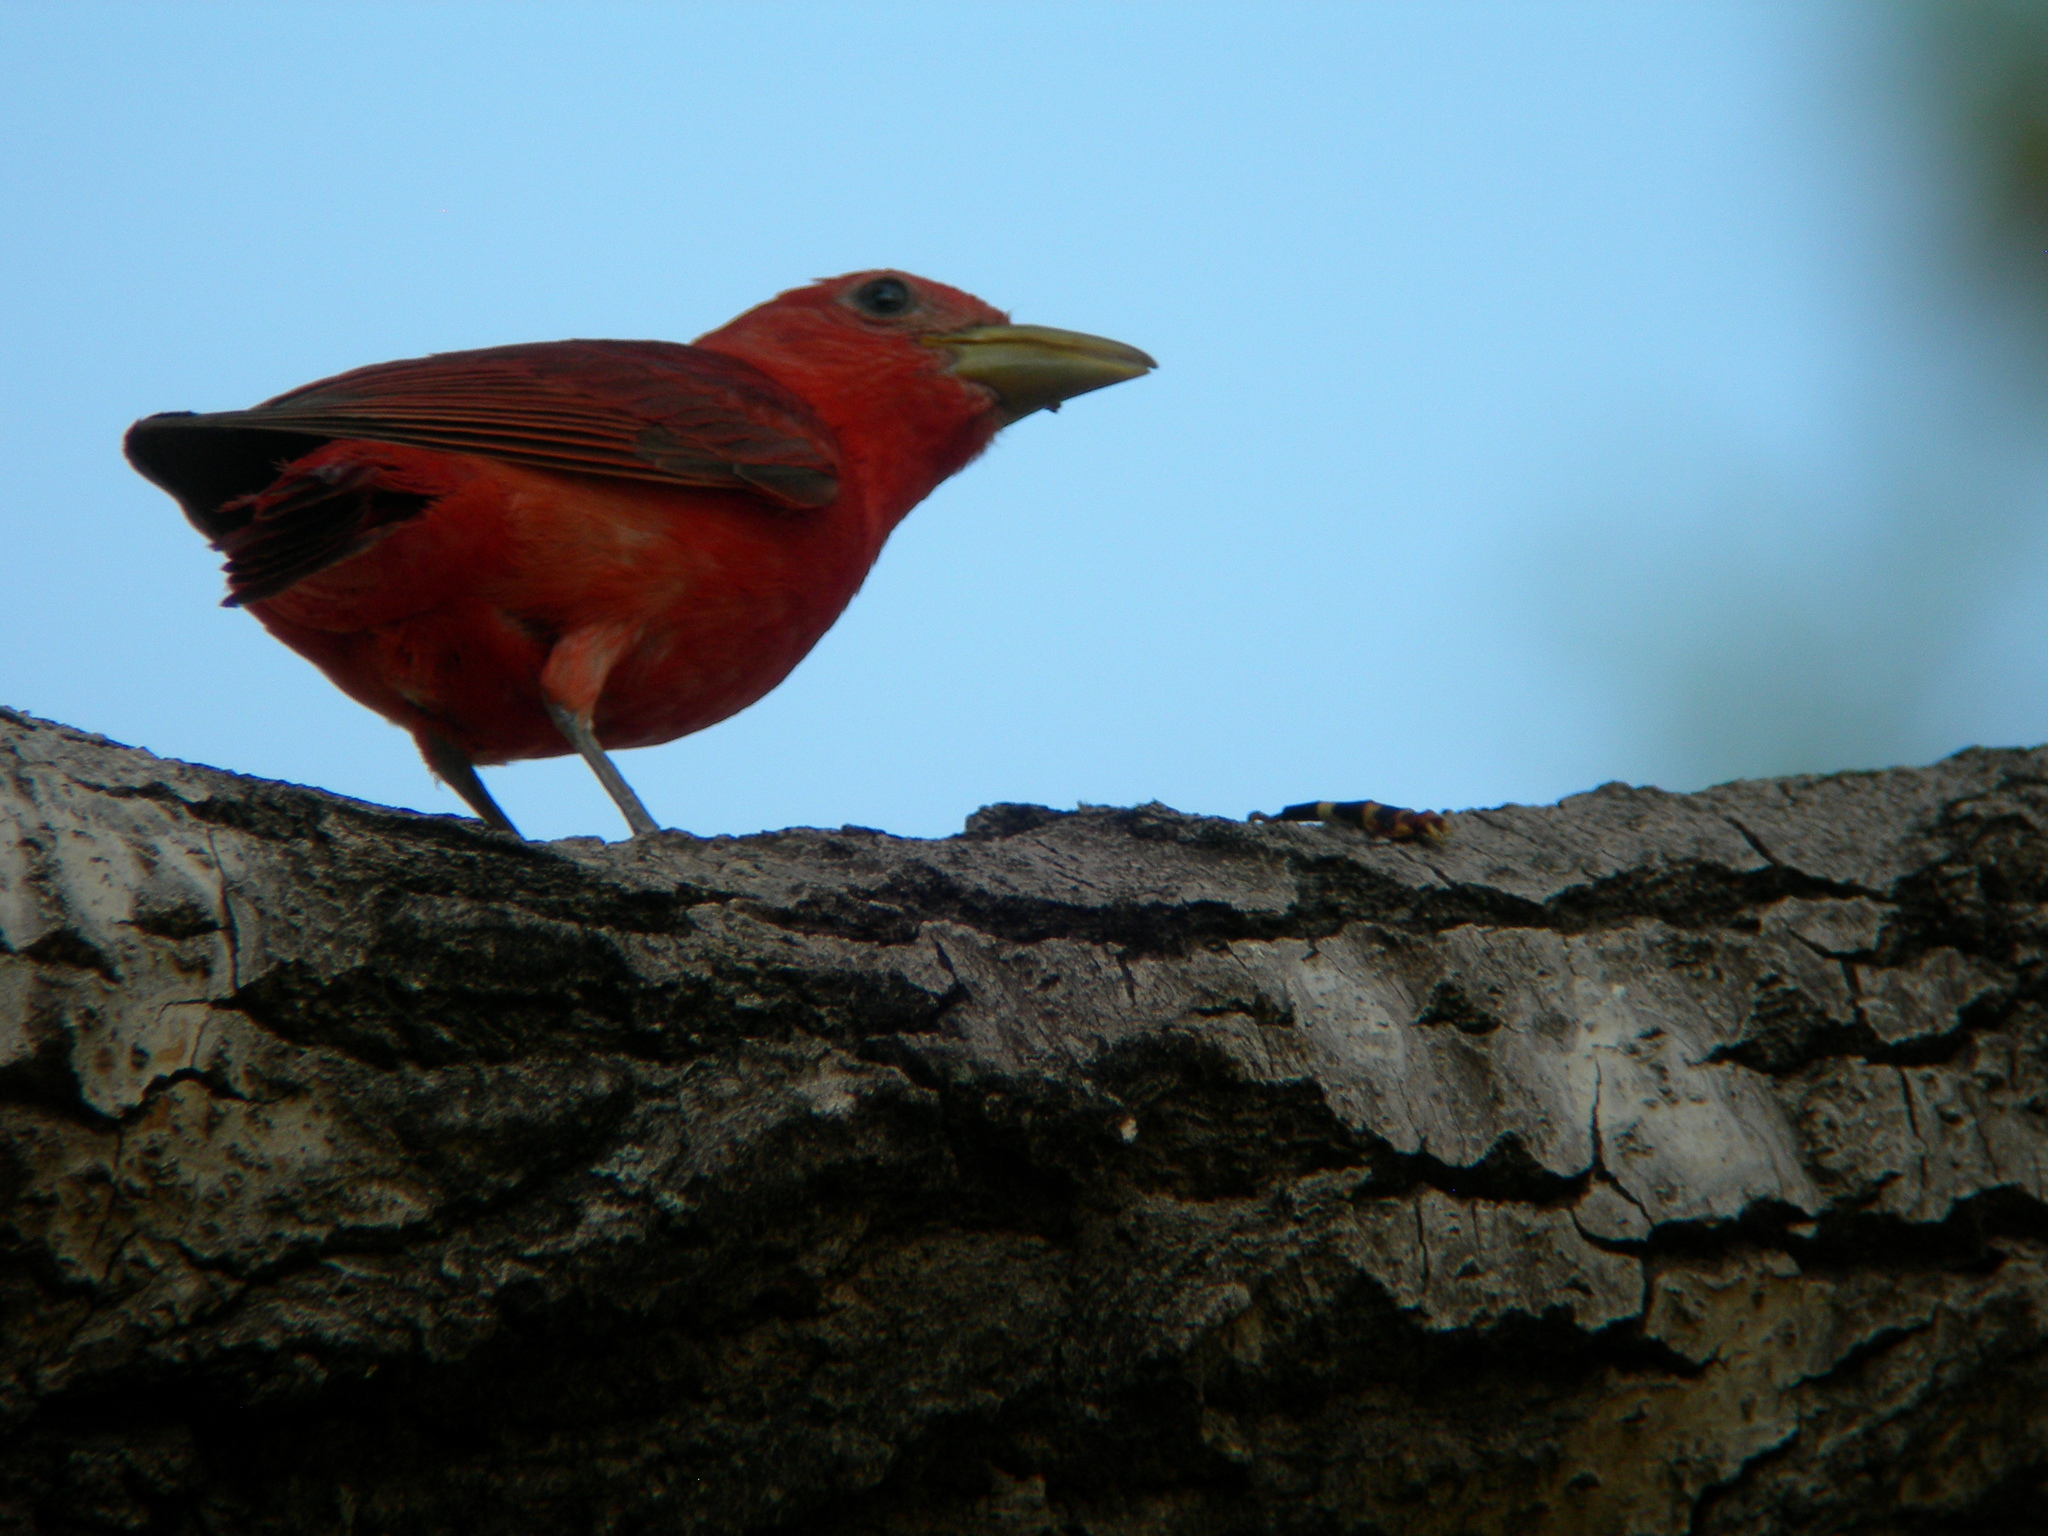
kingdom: Animalia
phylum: Chordata
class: Aves
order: Passeriformes
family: Cardinalidae
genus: Piranga
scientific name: Piranga rubra
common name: Summer tanager
